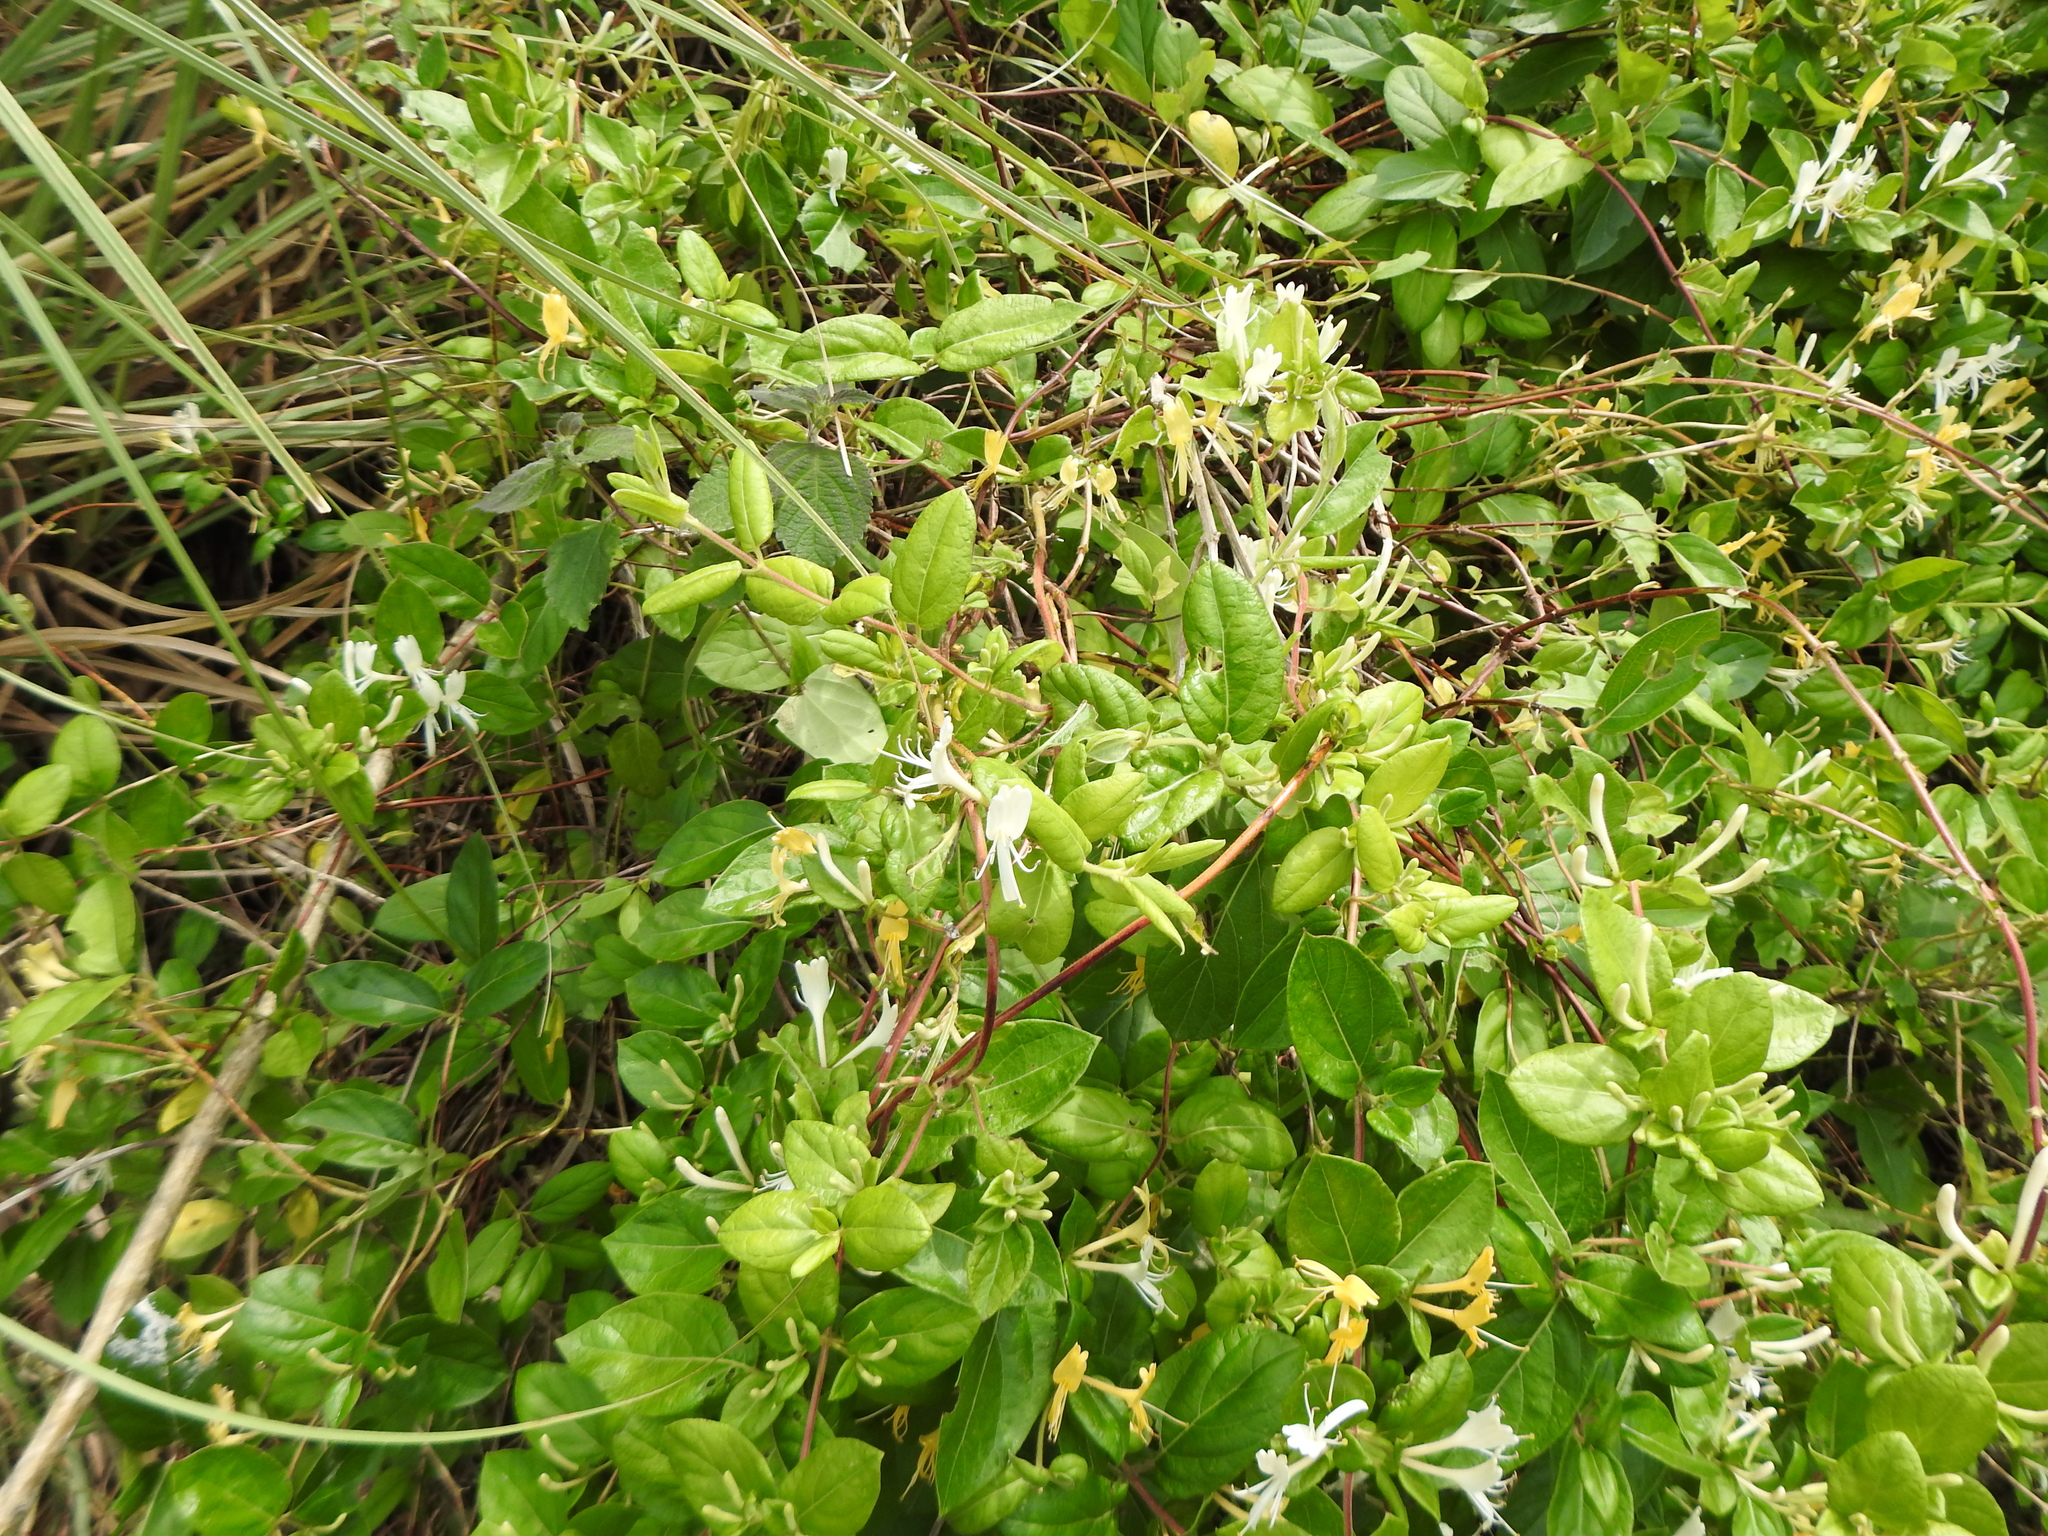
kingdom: Plantae
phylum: Tracheophyta
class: Magnoliopsida
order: Dipsacales
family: Caprifoliaceae
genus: Lonicera
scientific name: Lonicera japonica
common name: Japanese honeysuckle
